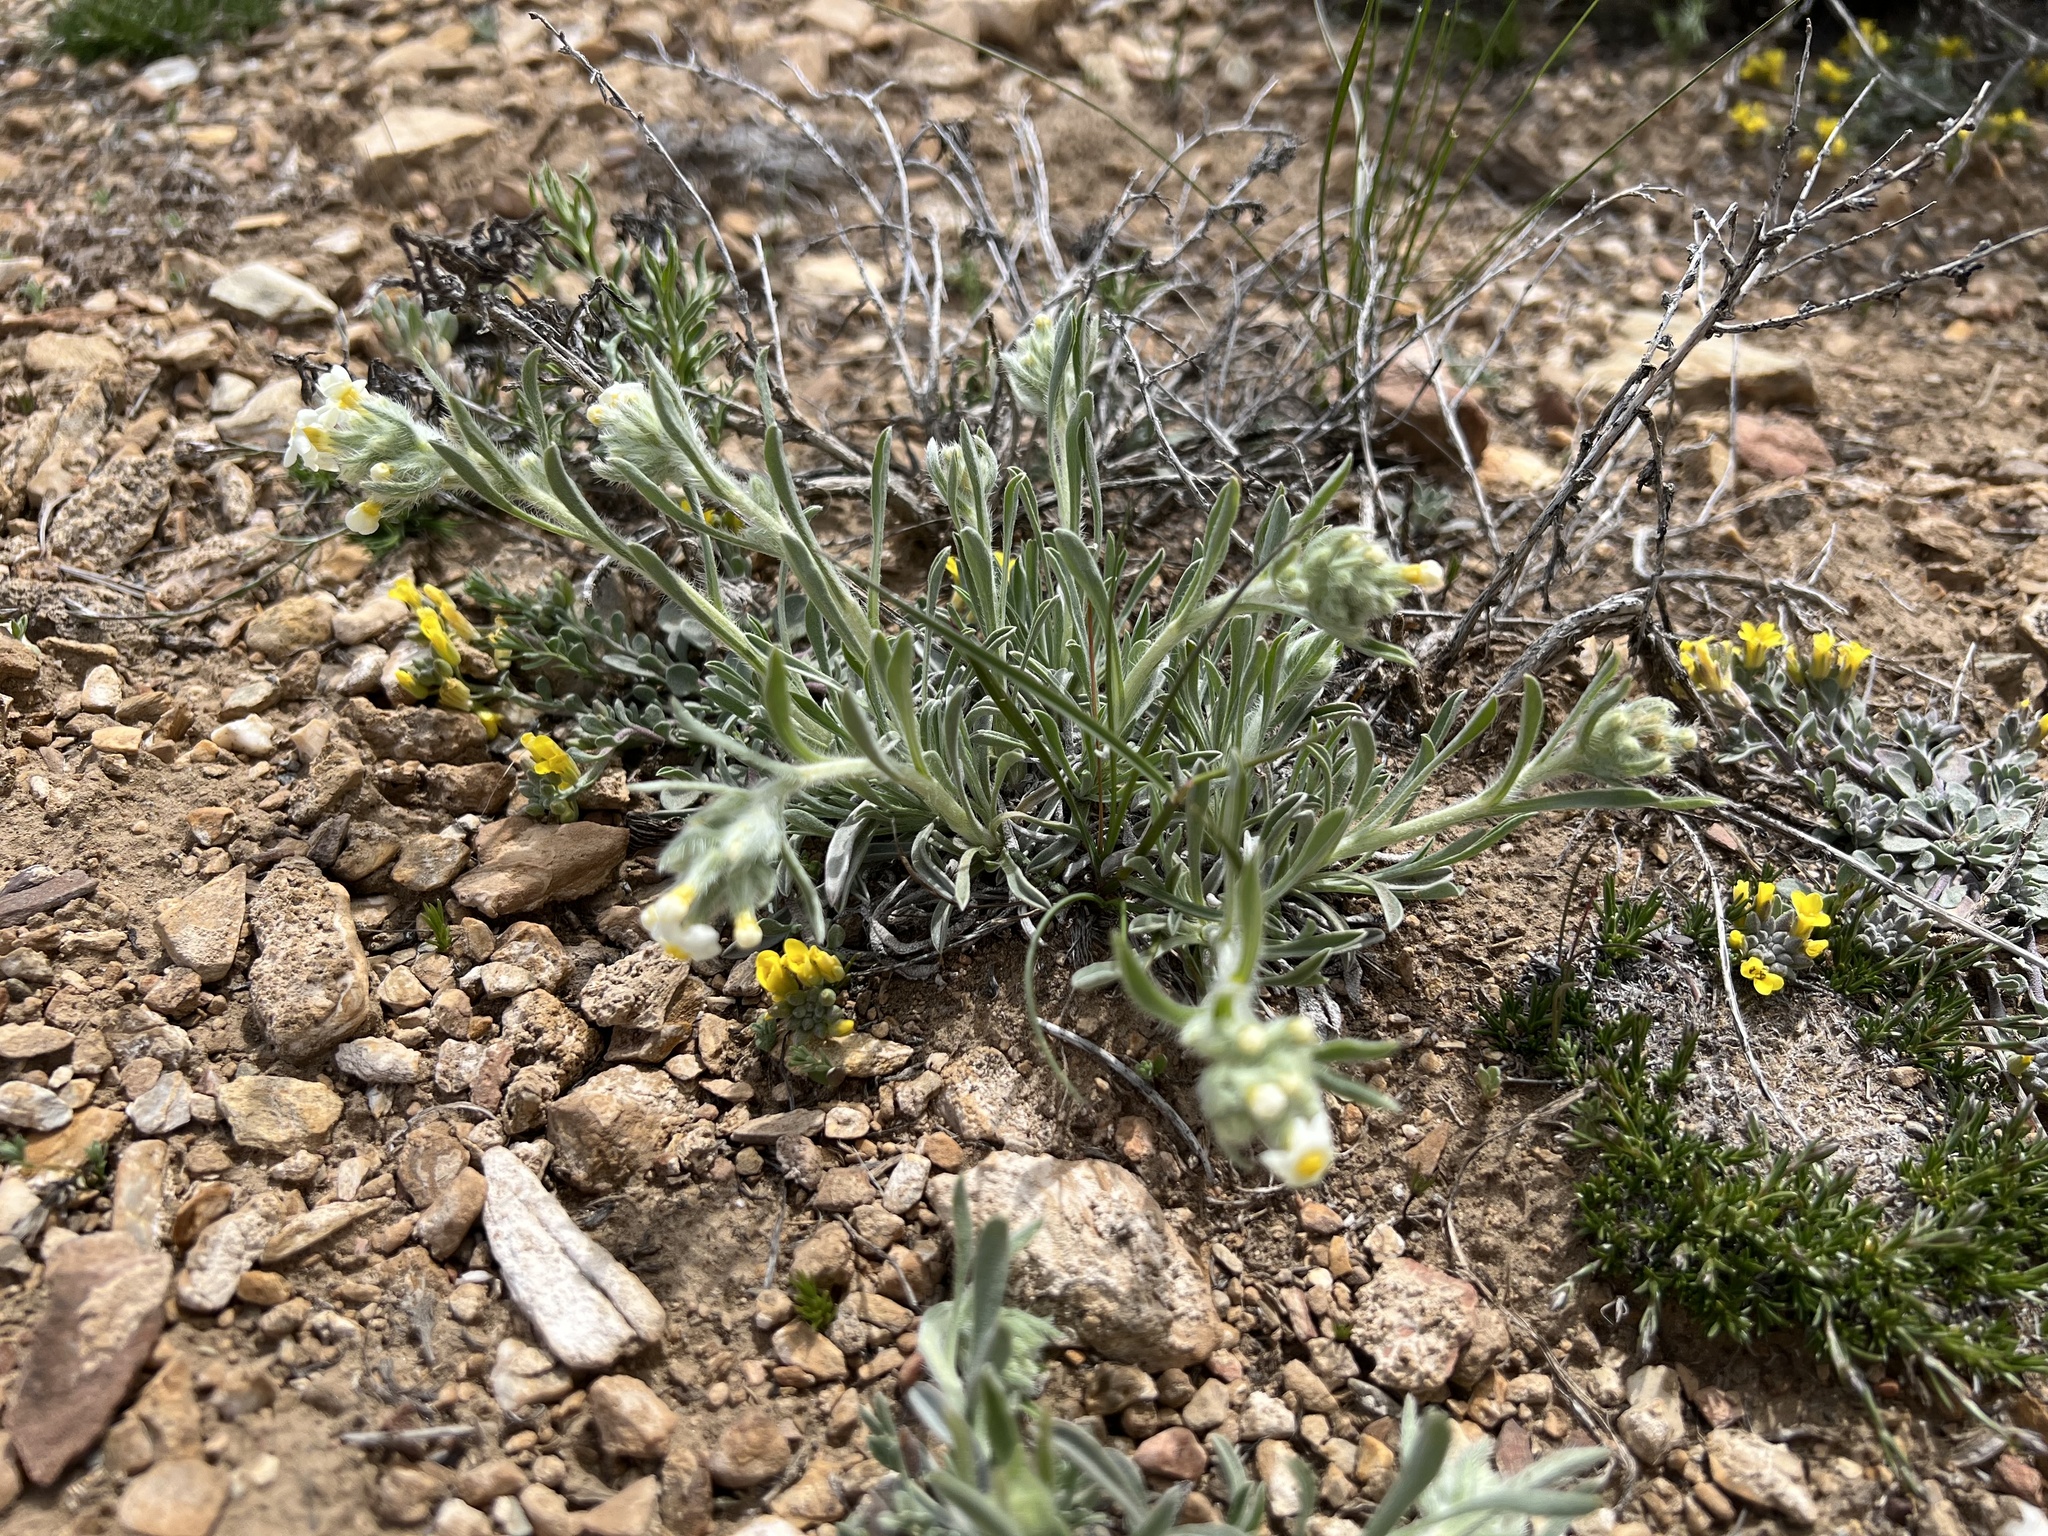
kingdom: Plantae
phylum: Tracheophyta
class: Magnoliopsida
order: Boraginales
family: Boraginaceae
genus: Oreocarya
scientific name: Oreocarya flavoculata
